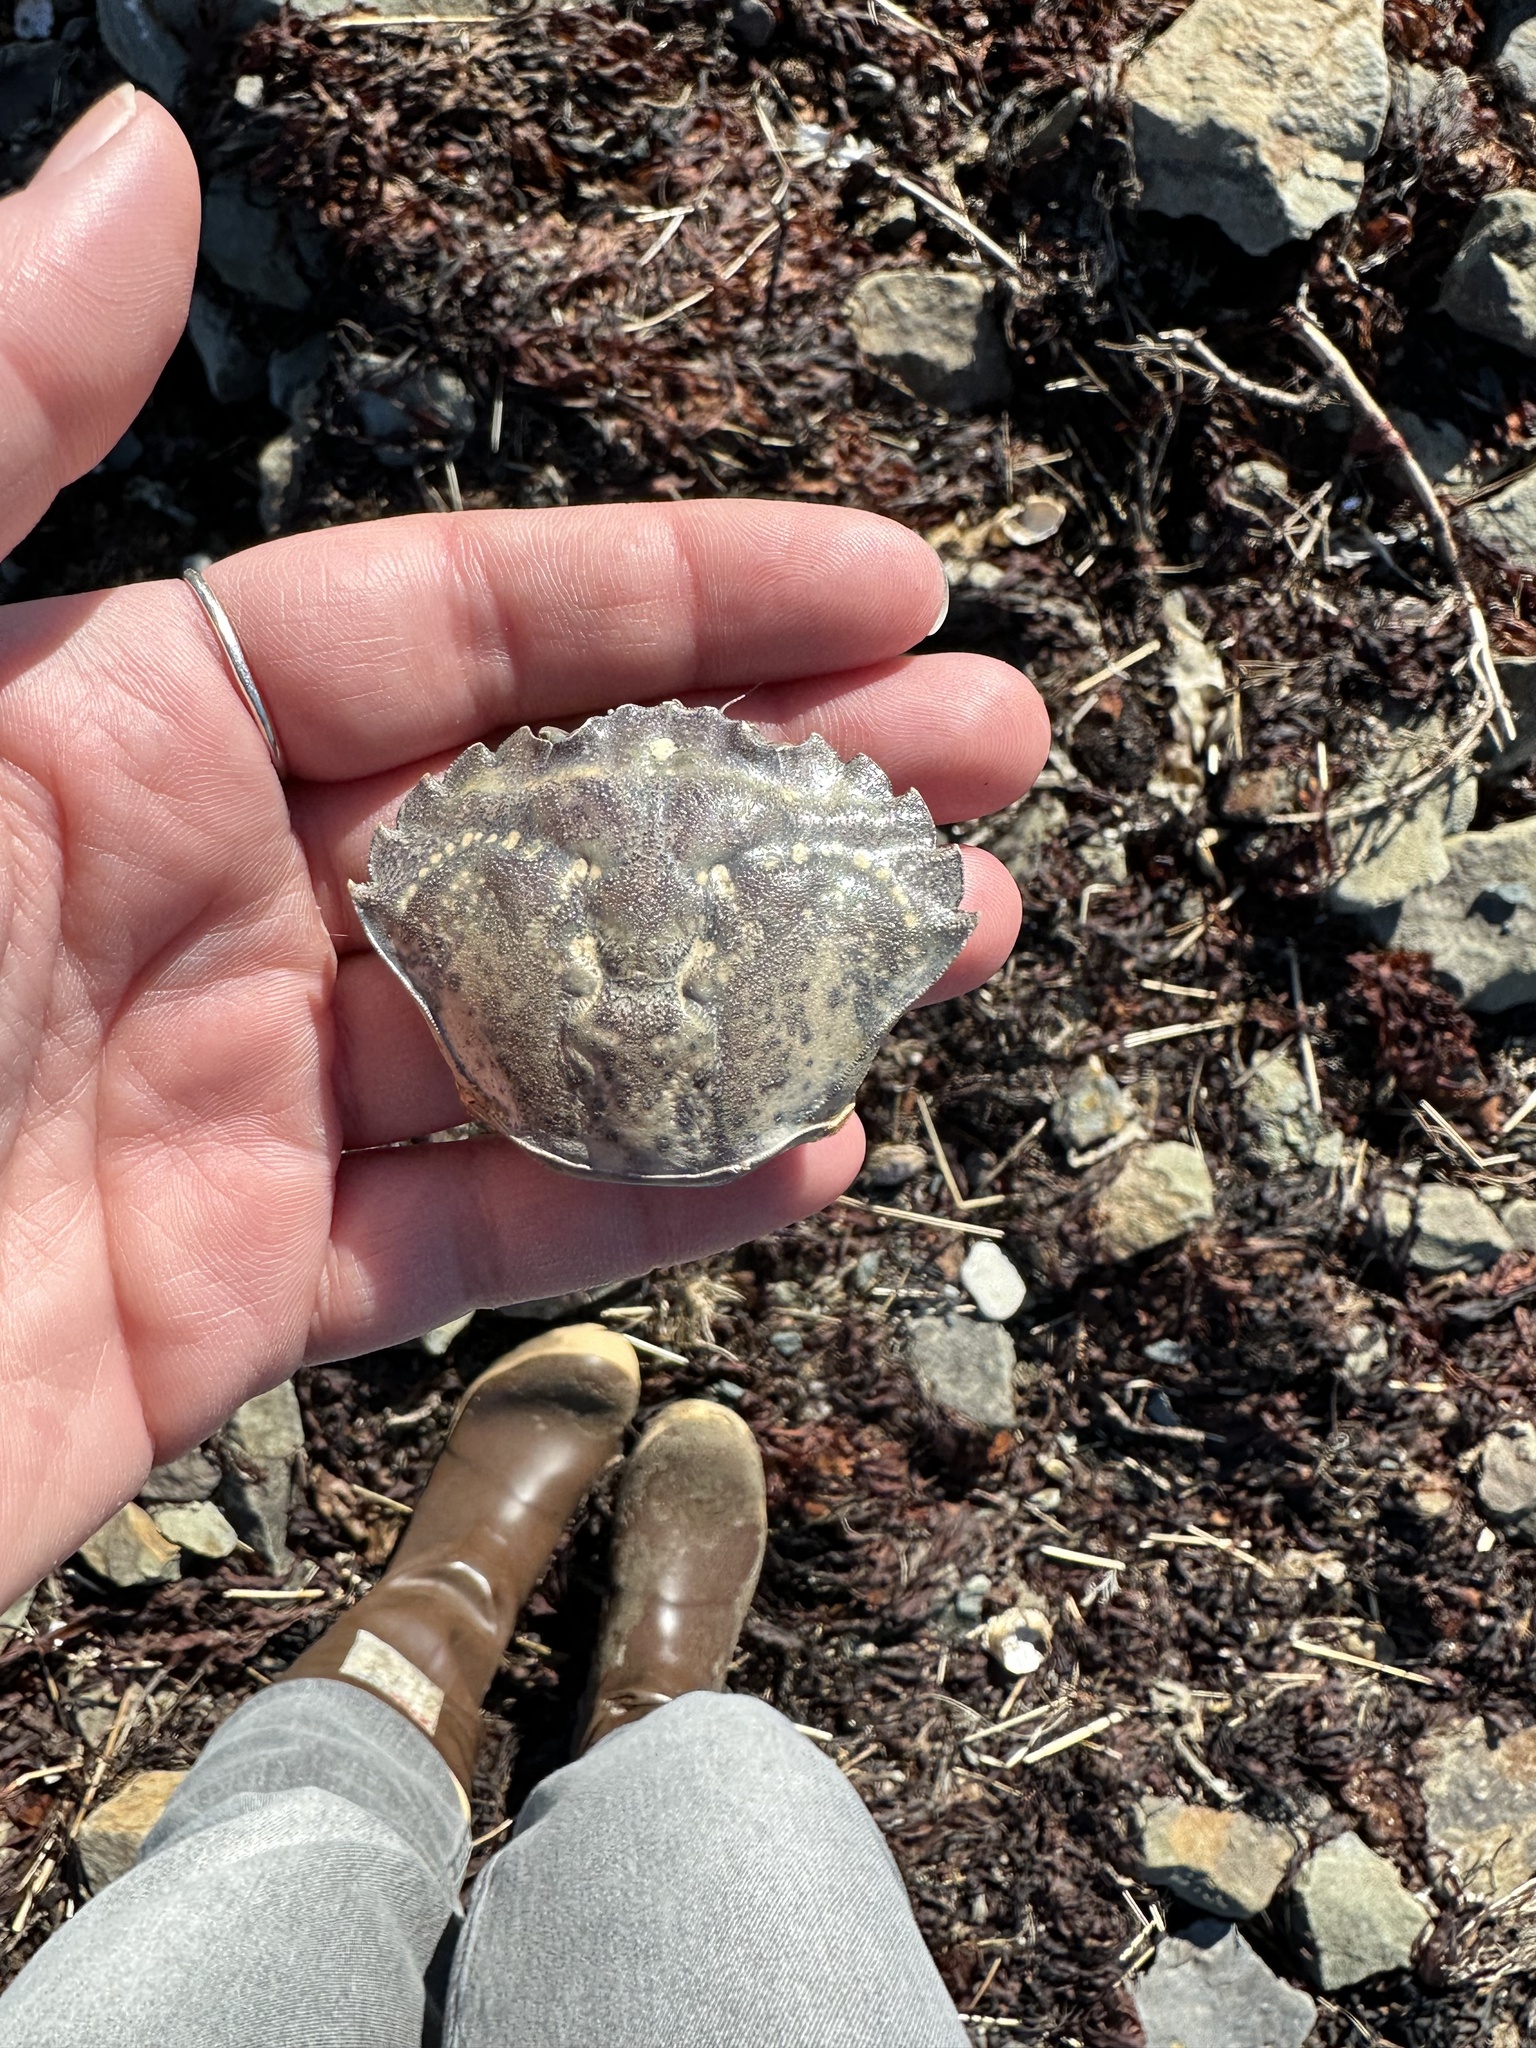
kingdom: Animalia
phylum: Arthropoda
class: Malacostraca
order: Decapoda
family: Carcinidae
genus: Carcinus
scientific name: Carcinus maenas
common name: European green crab
